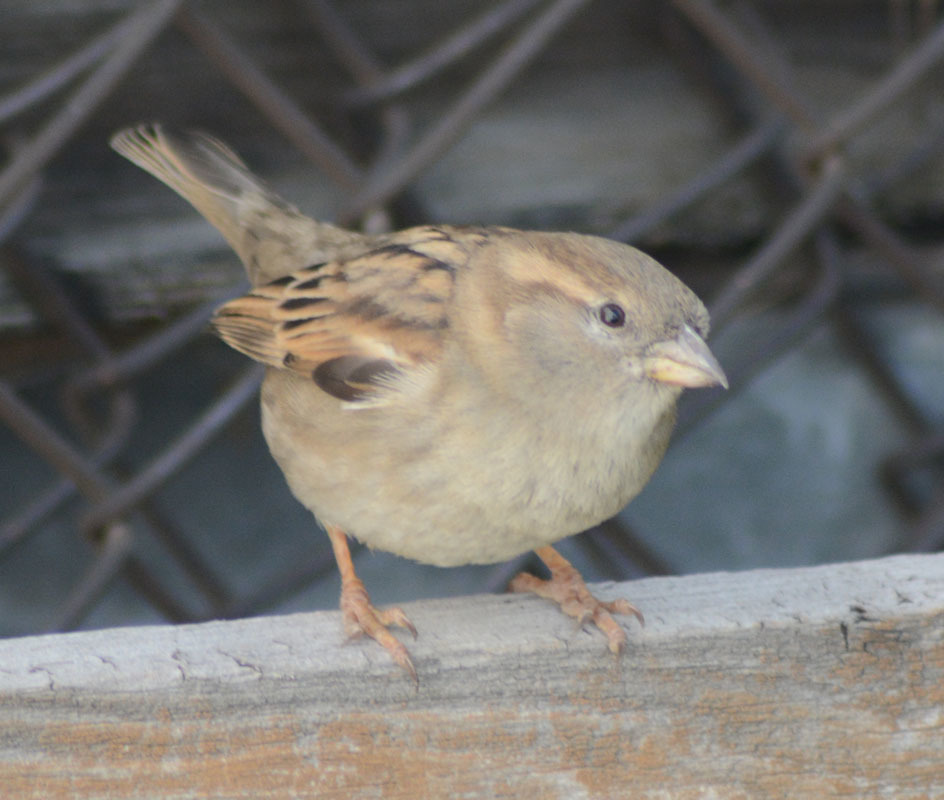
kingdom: Animalia
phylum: Chordata
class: Aves
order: Passeriformes
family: Passeridae
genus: Passer
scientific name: Passer domesticus
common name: House sparrow
